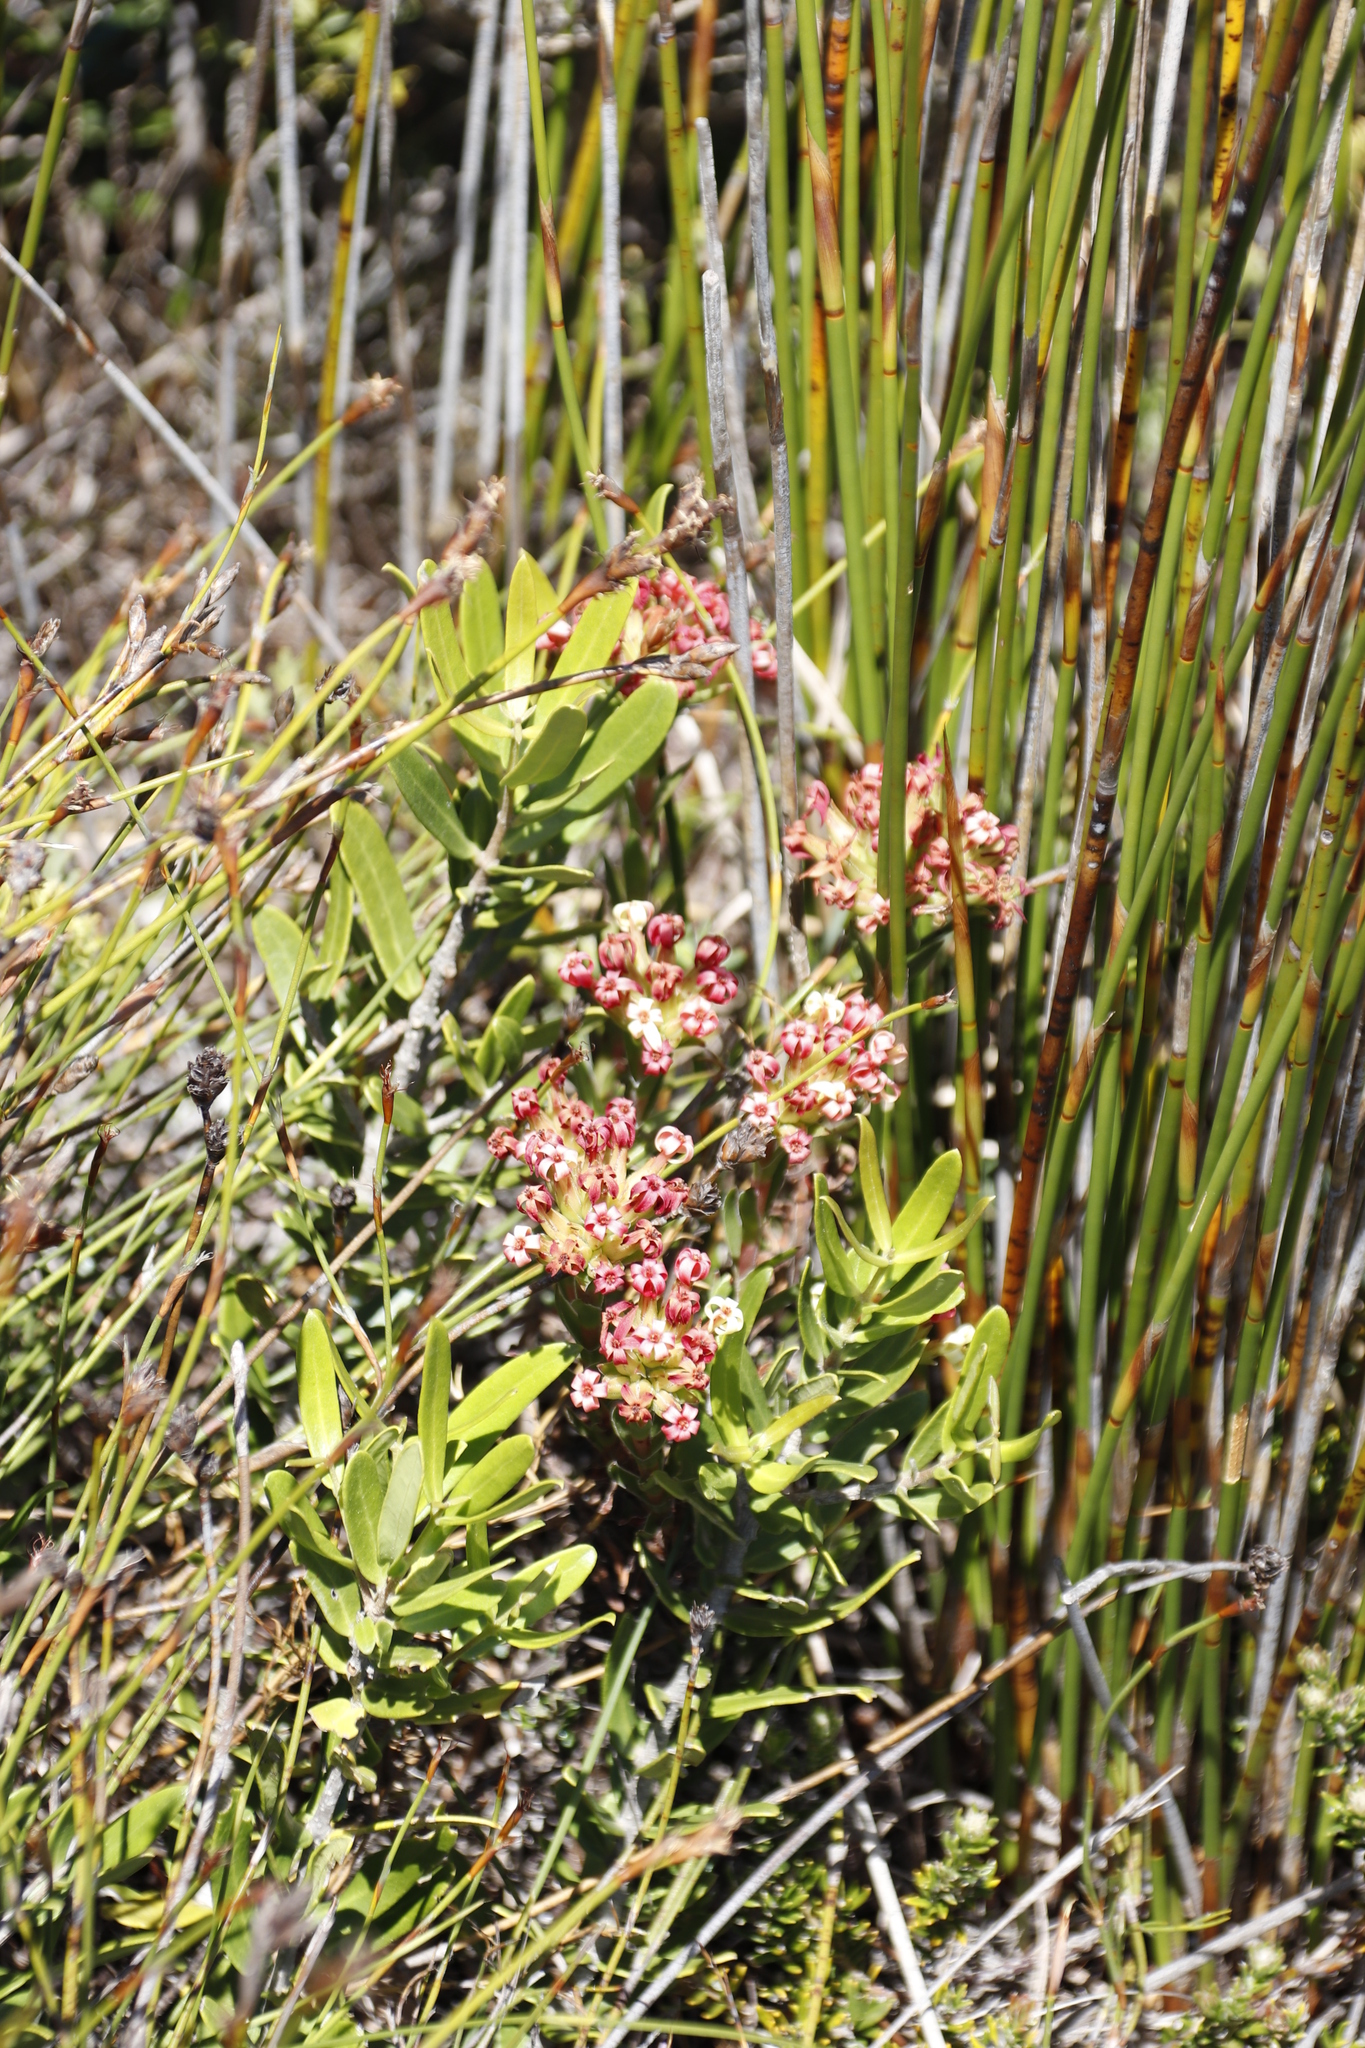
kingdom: Plantae
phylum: Tracheophyta
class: Magnoliopsida
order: Saxifragales
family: Crassulaceae
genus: Crassula
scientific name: Crassula fascicularis
